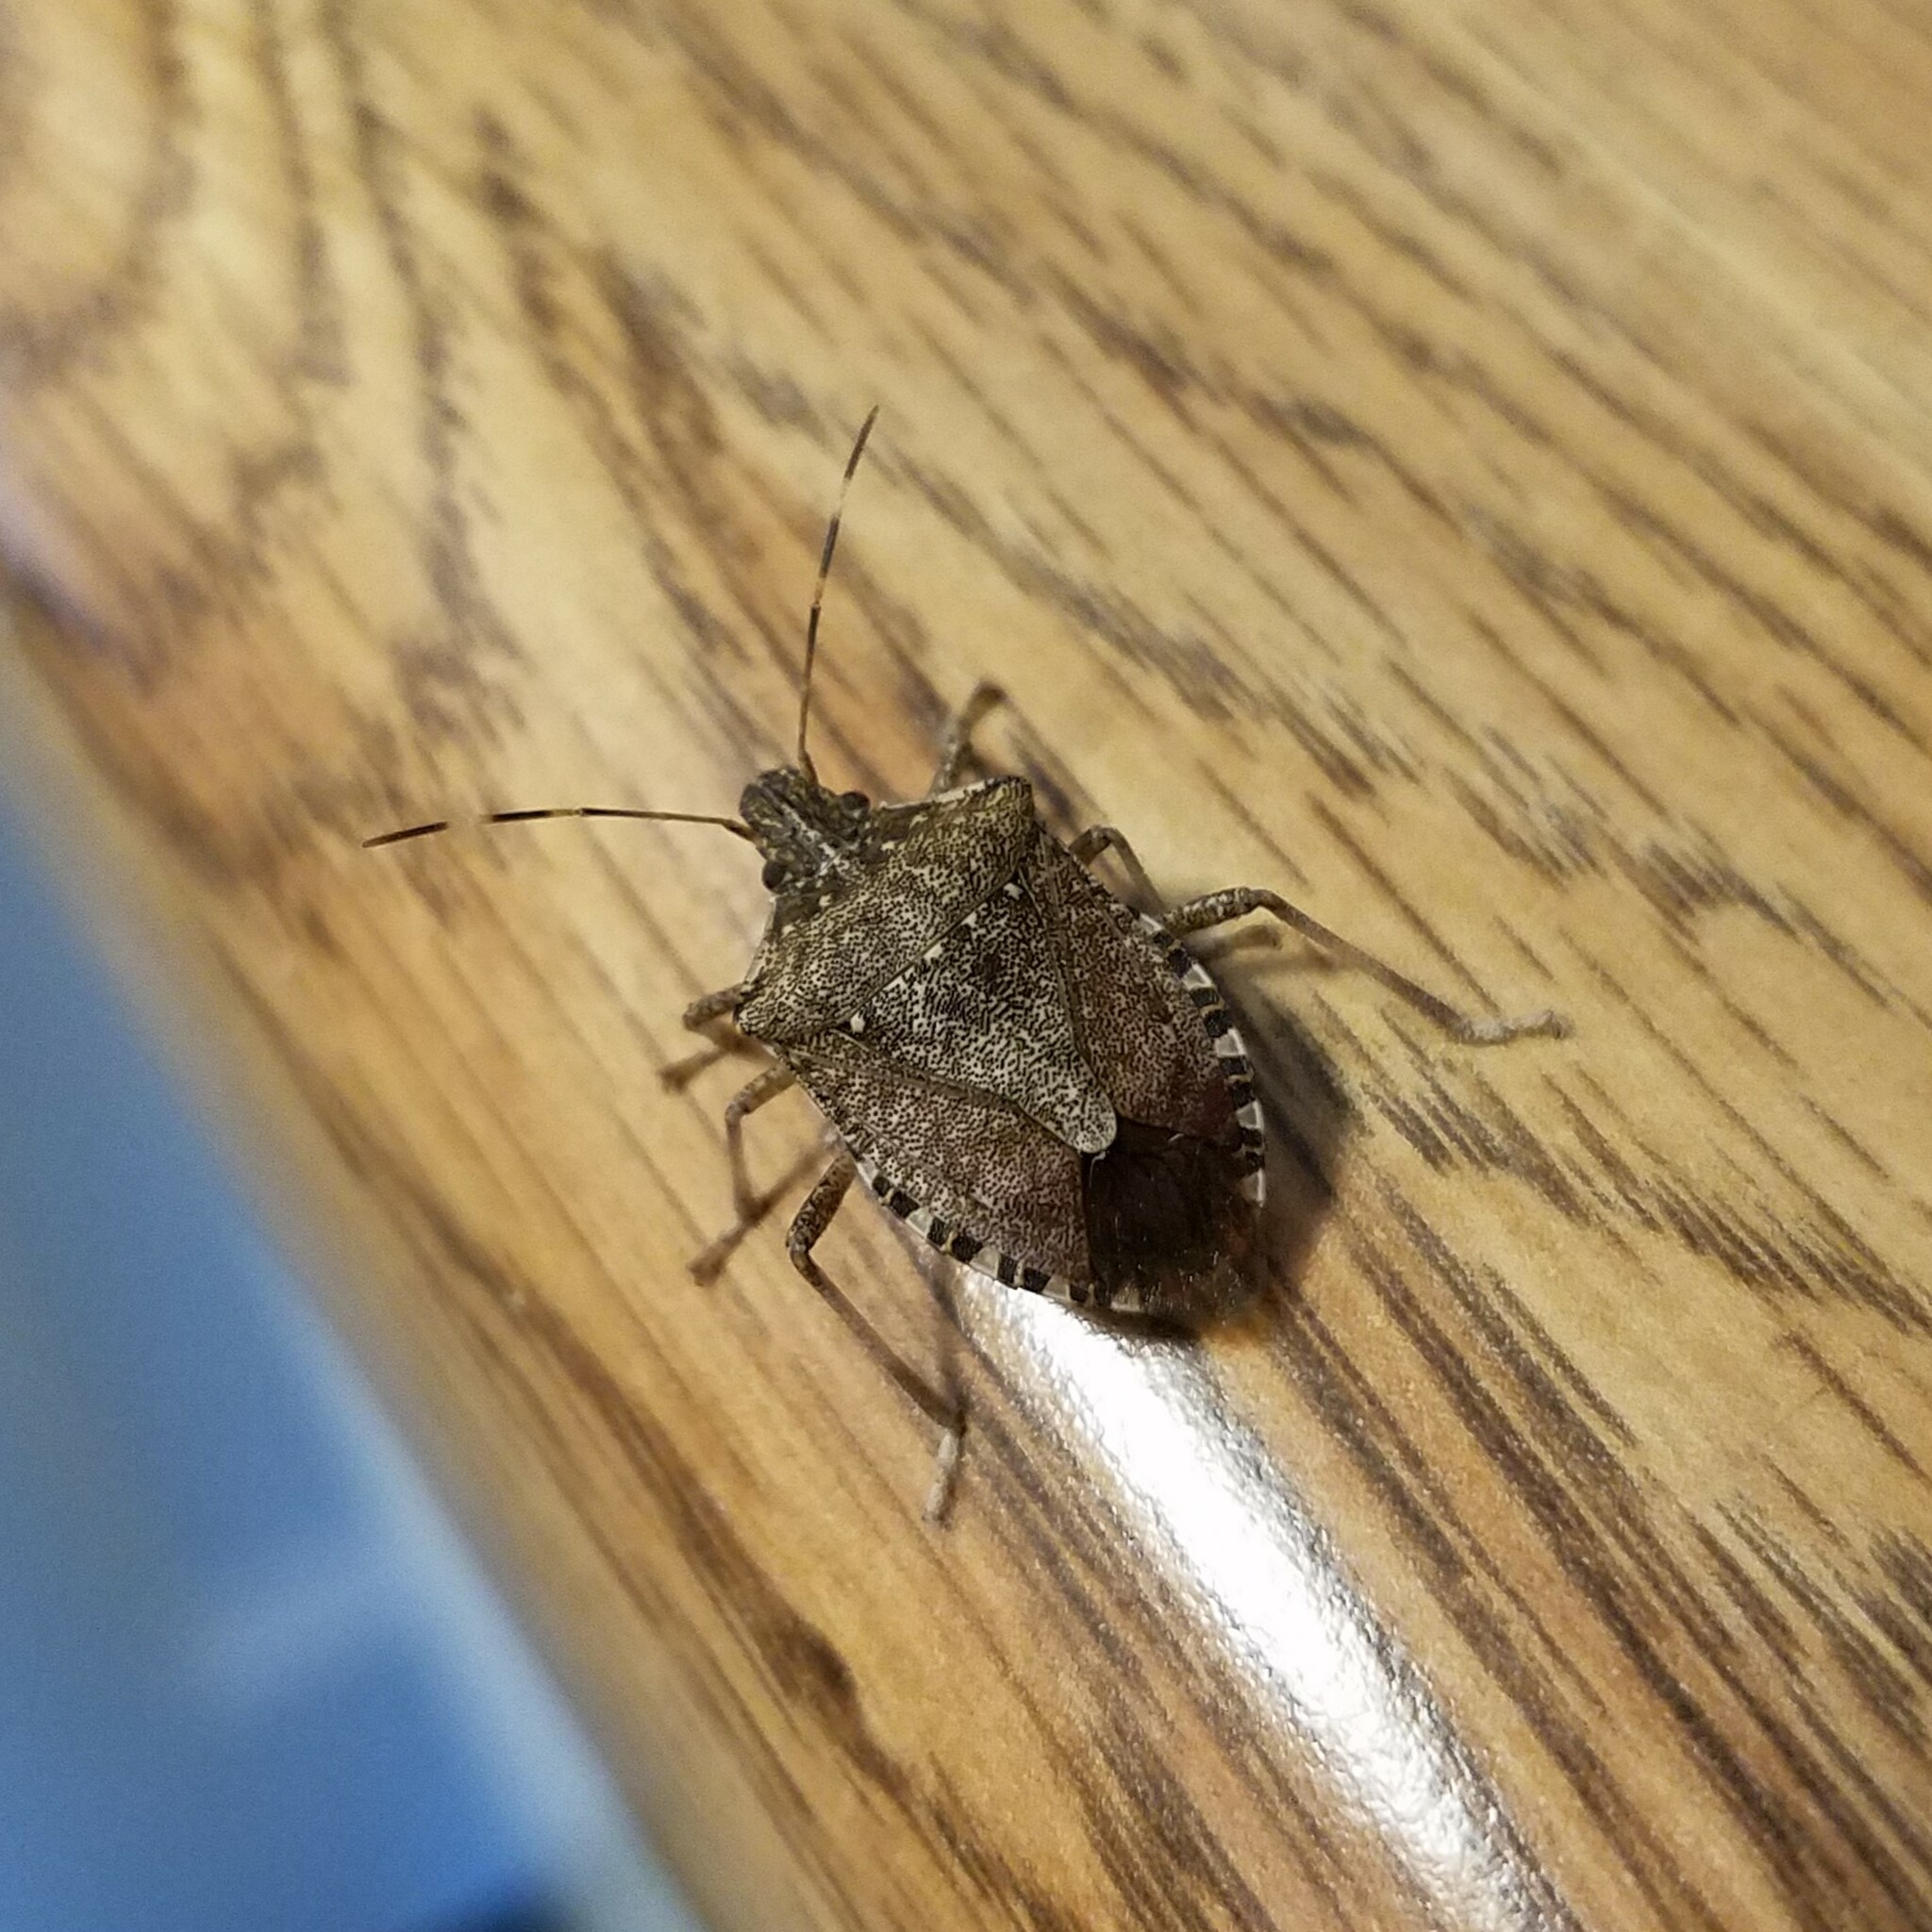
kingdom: Animalia
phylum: Arthropoda
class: Insecta
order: Hemiptera
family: Pentatomidae
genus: Halyomorpha
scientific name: Halyomorpha halys
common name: Brown marmorated stink bug
